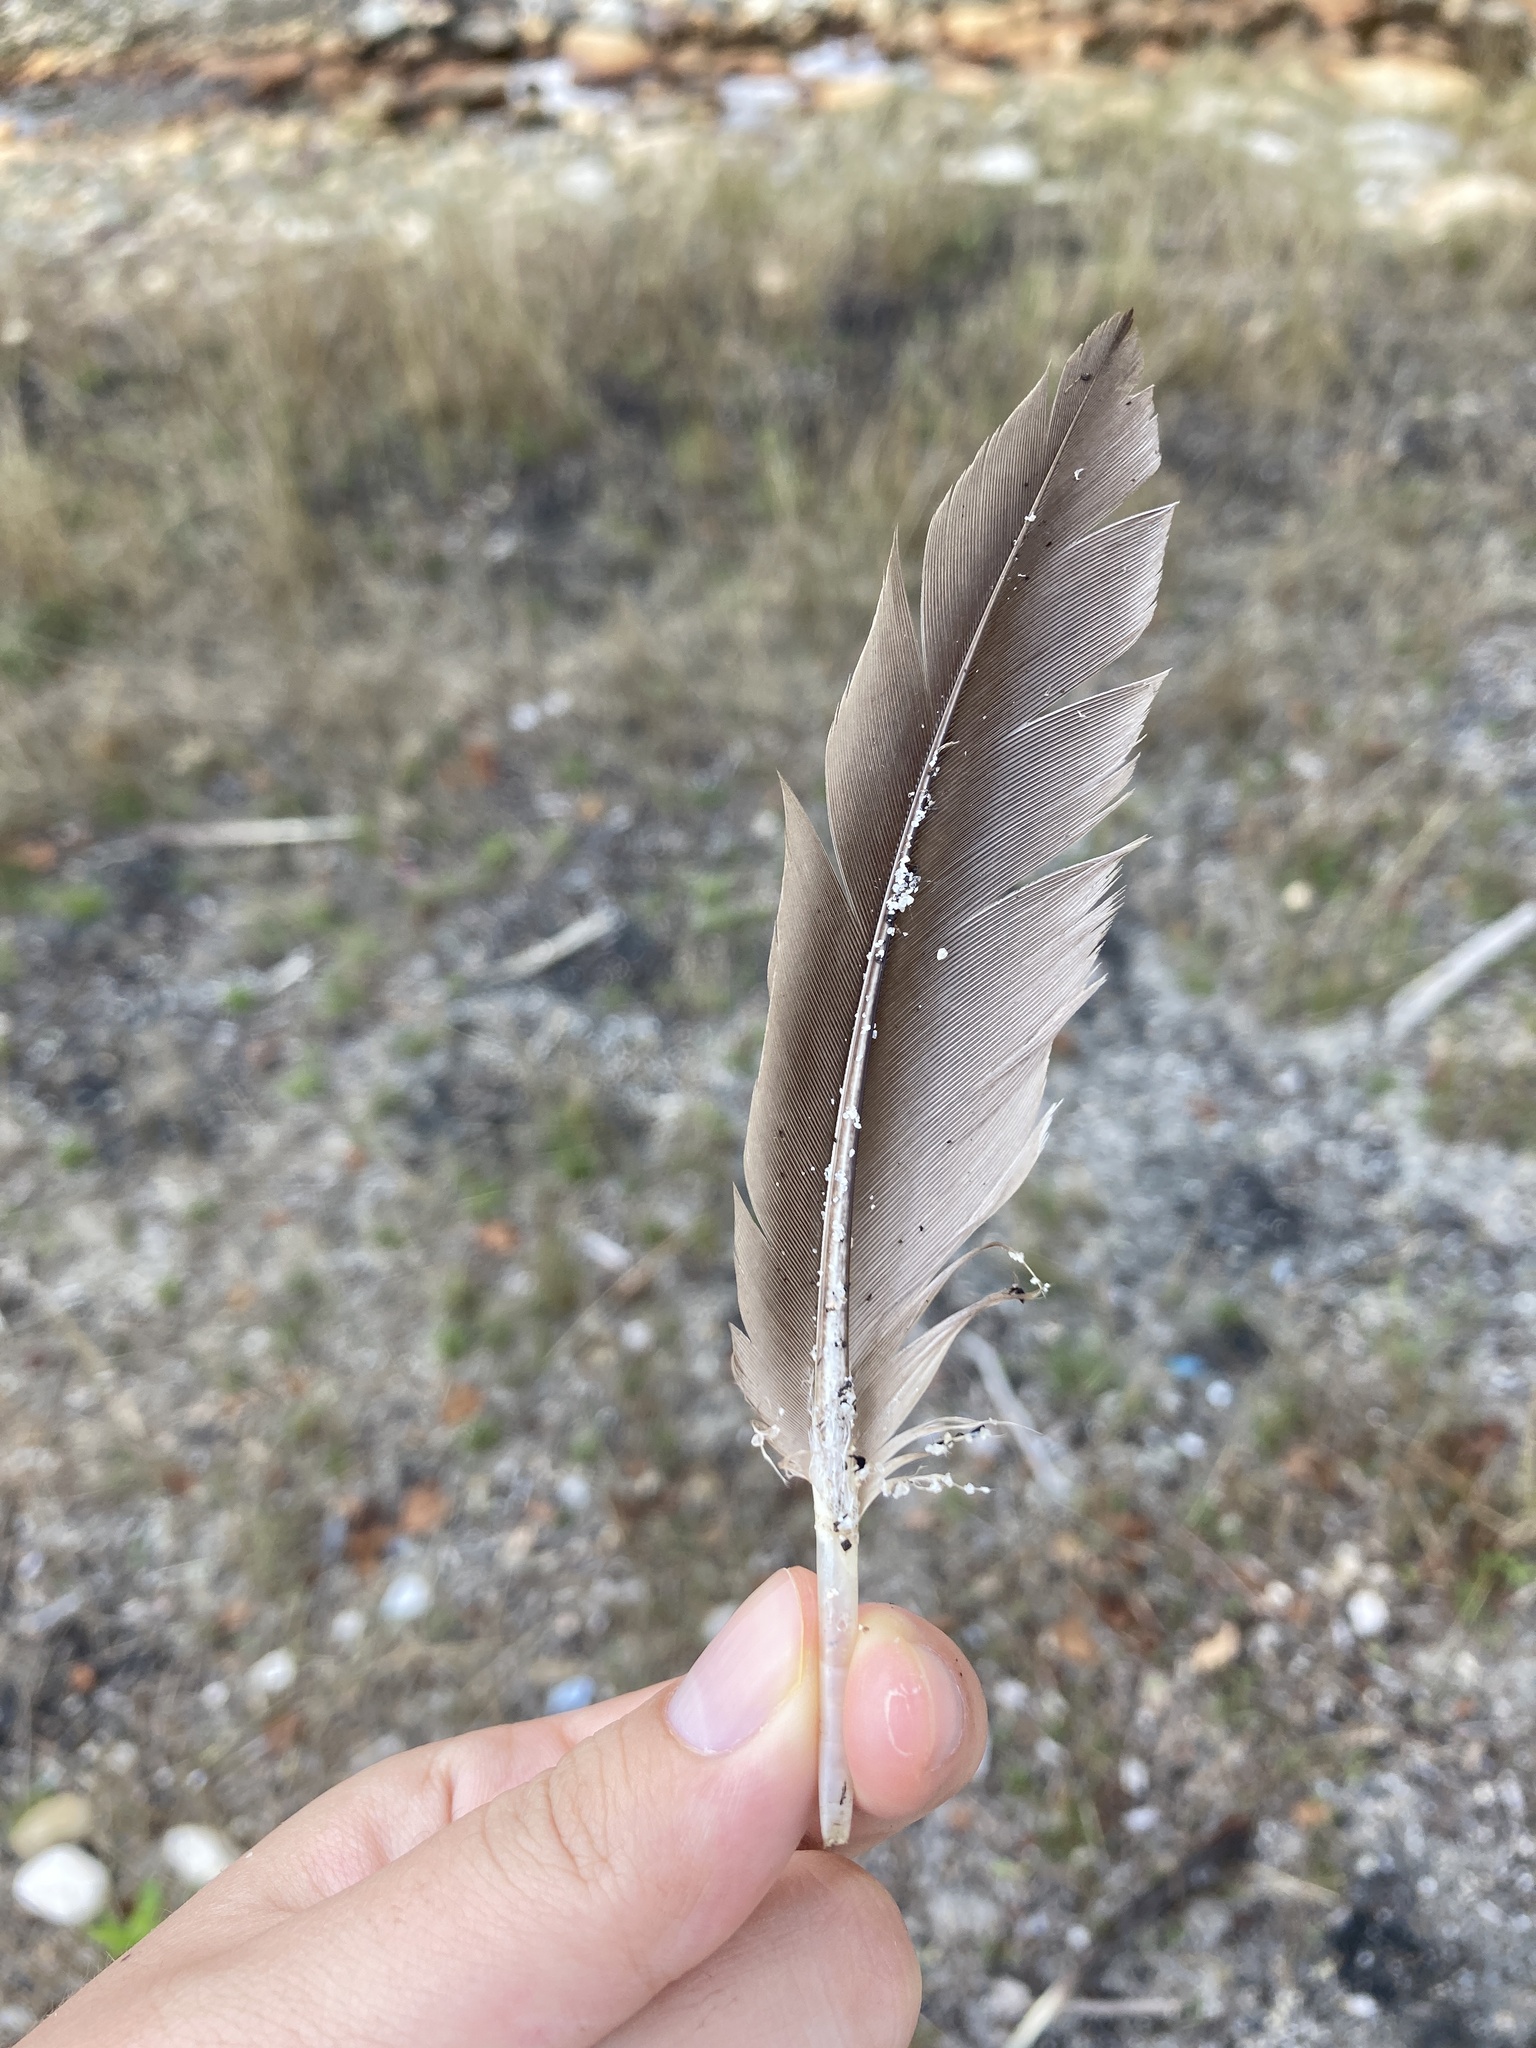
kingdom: Animalia
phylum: Chordata
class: Aves
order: Anseriformes
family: Anatidae
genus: Branta
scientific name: Branta canadensis
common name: Canada goose
